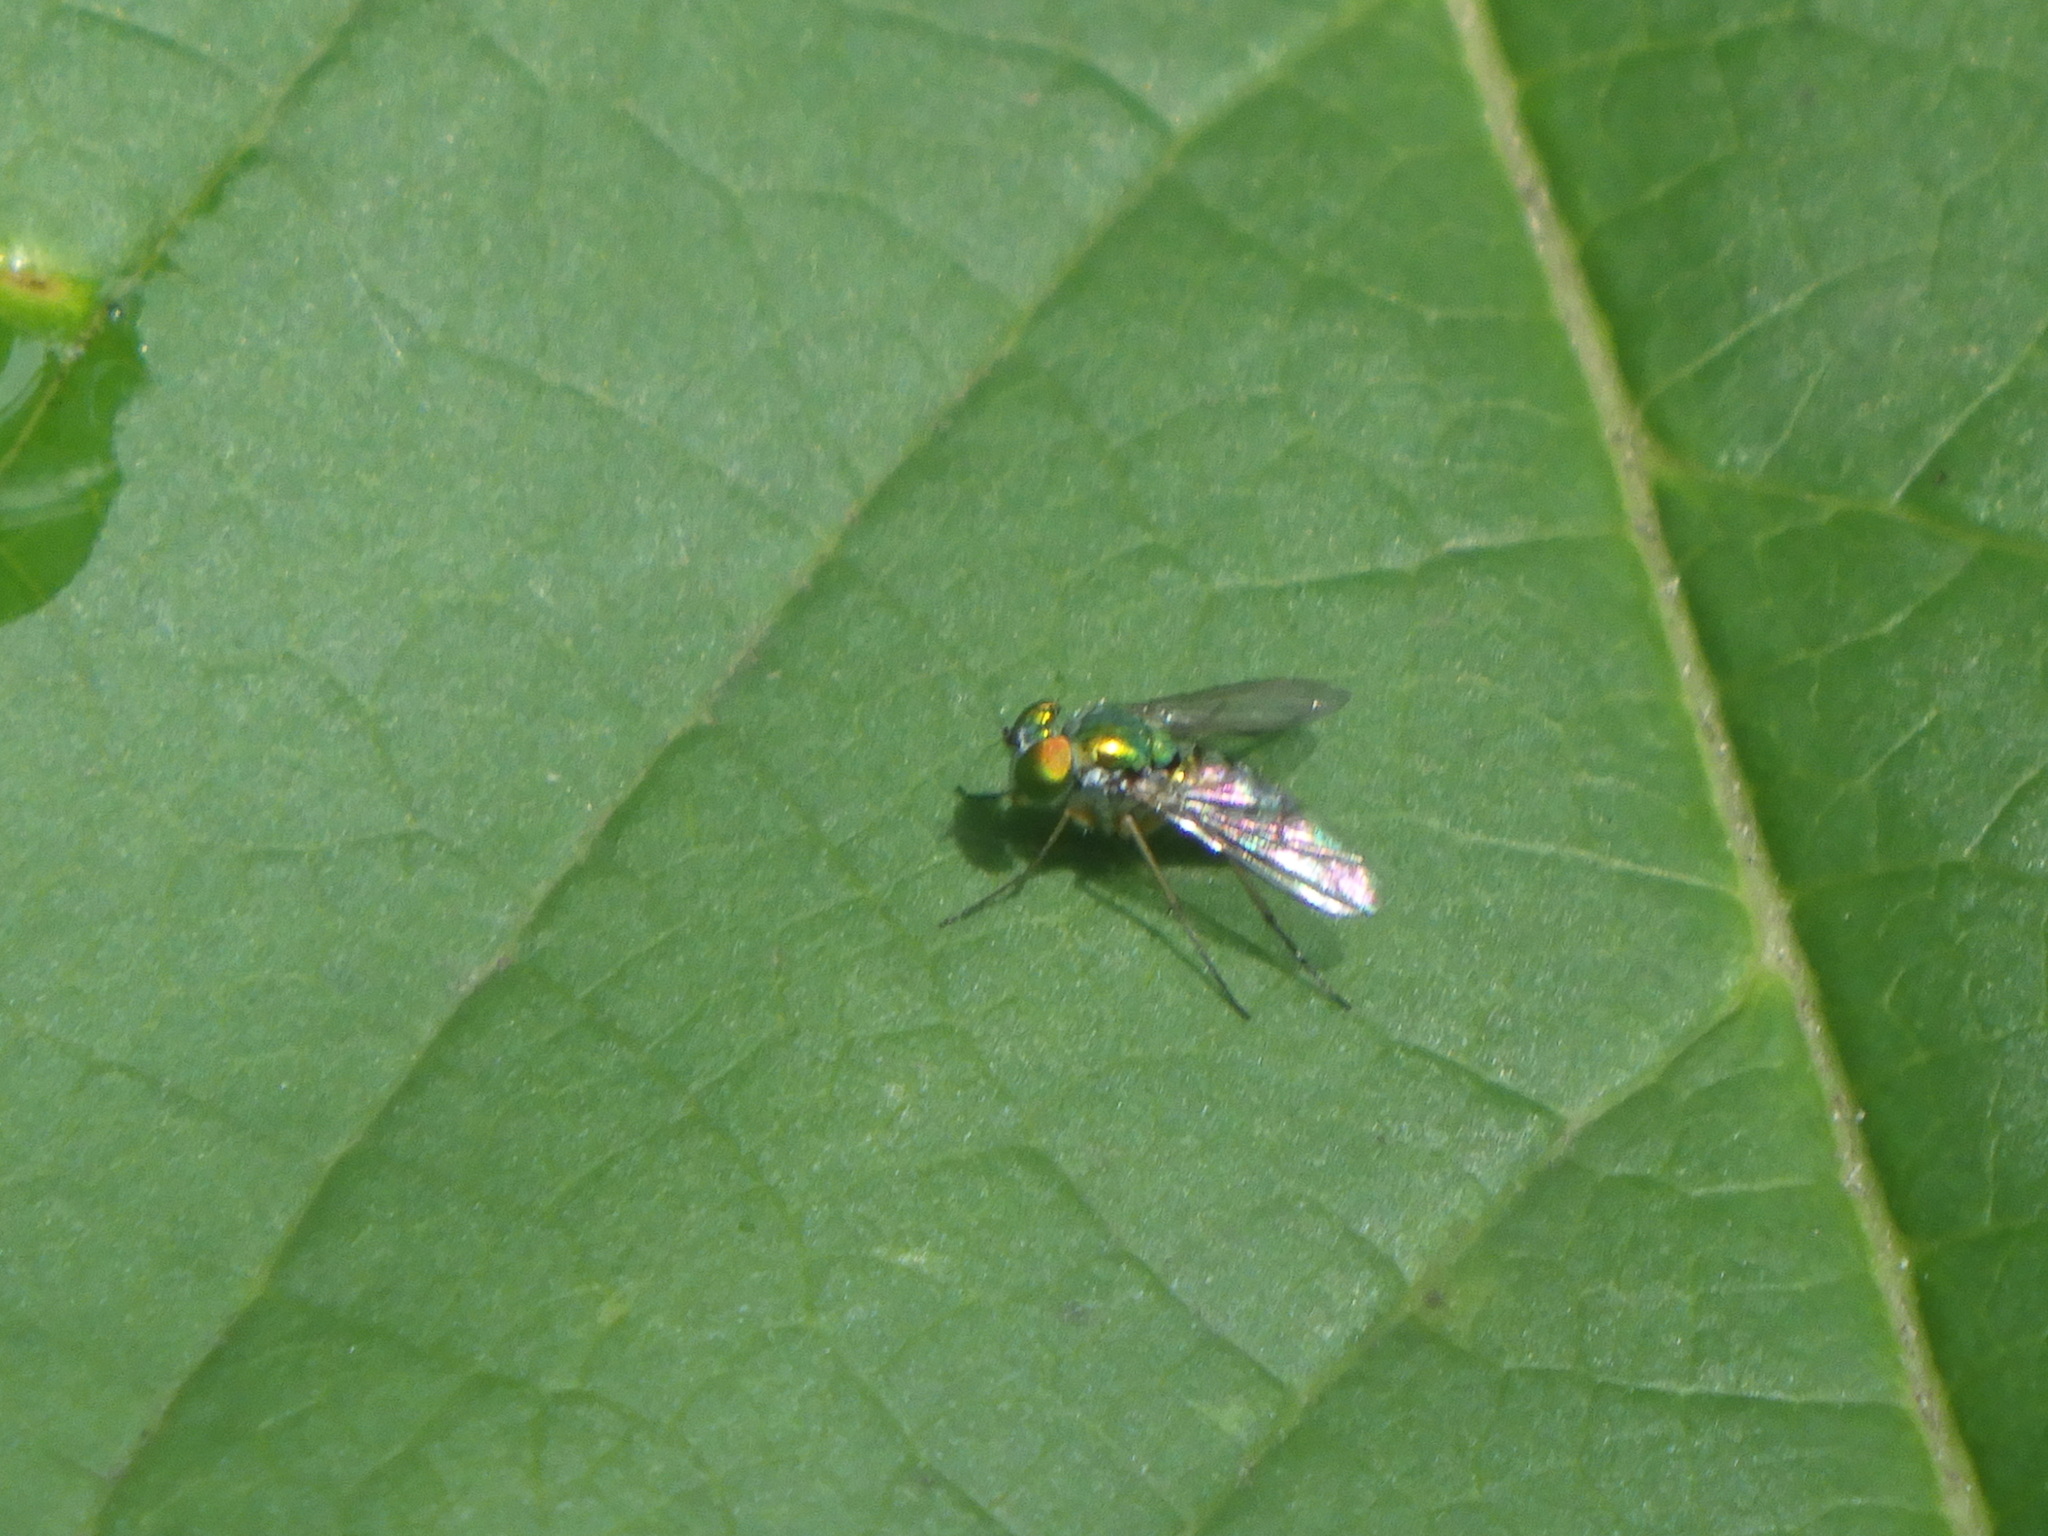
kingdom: Animalia
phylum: Arthropoda
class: Insecta
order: Diptera
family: Dolichopodidae
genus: Condylostylus
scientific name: Condylostylus
